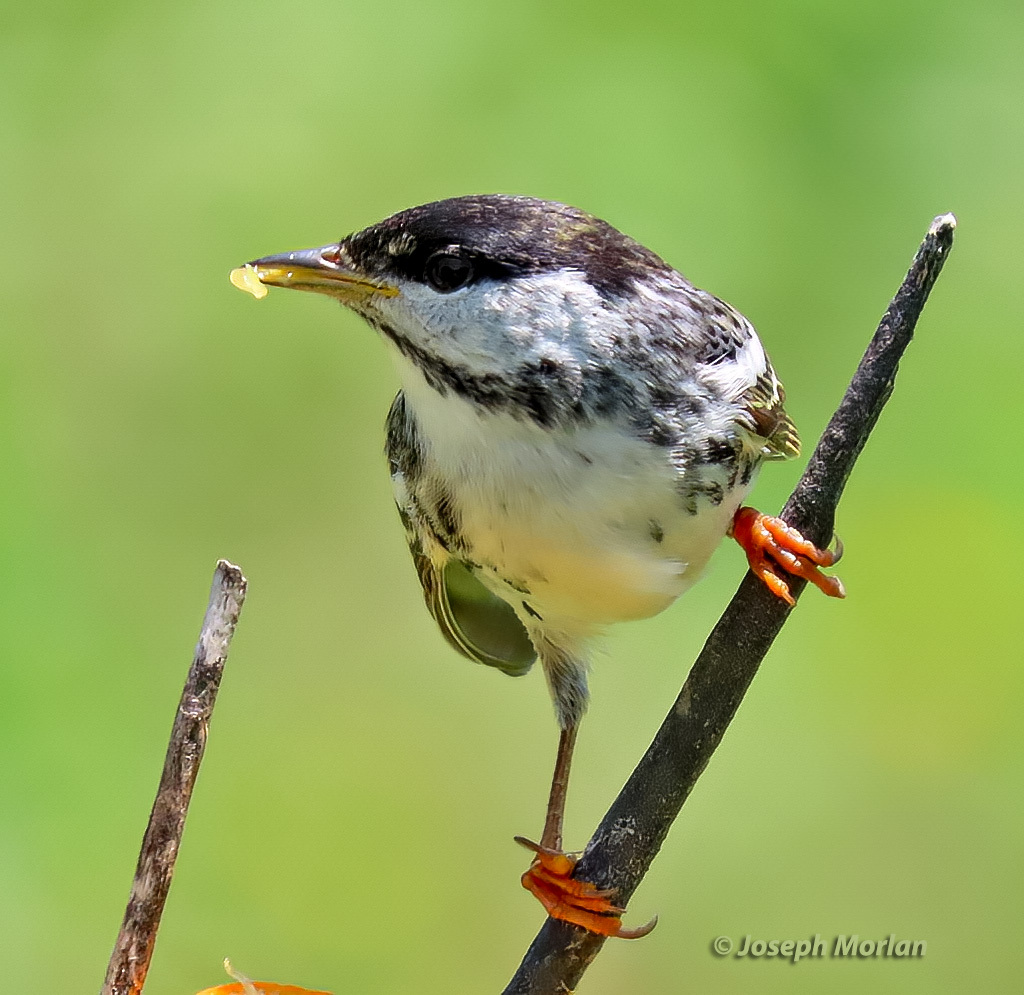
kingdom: Animalia
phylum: Chordata
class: Aves
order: Passeriformes
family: Parulidae
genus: Setophaga
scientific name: Setophaga striata
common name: Blackpoll warbler
